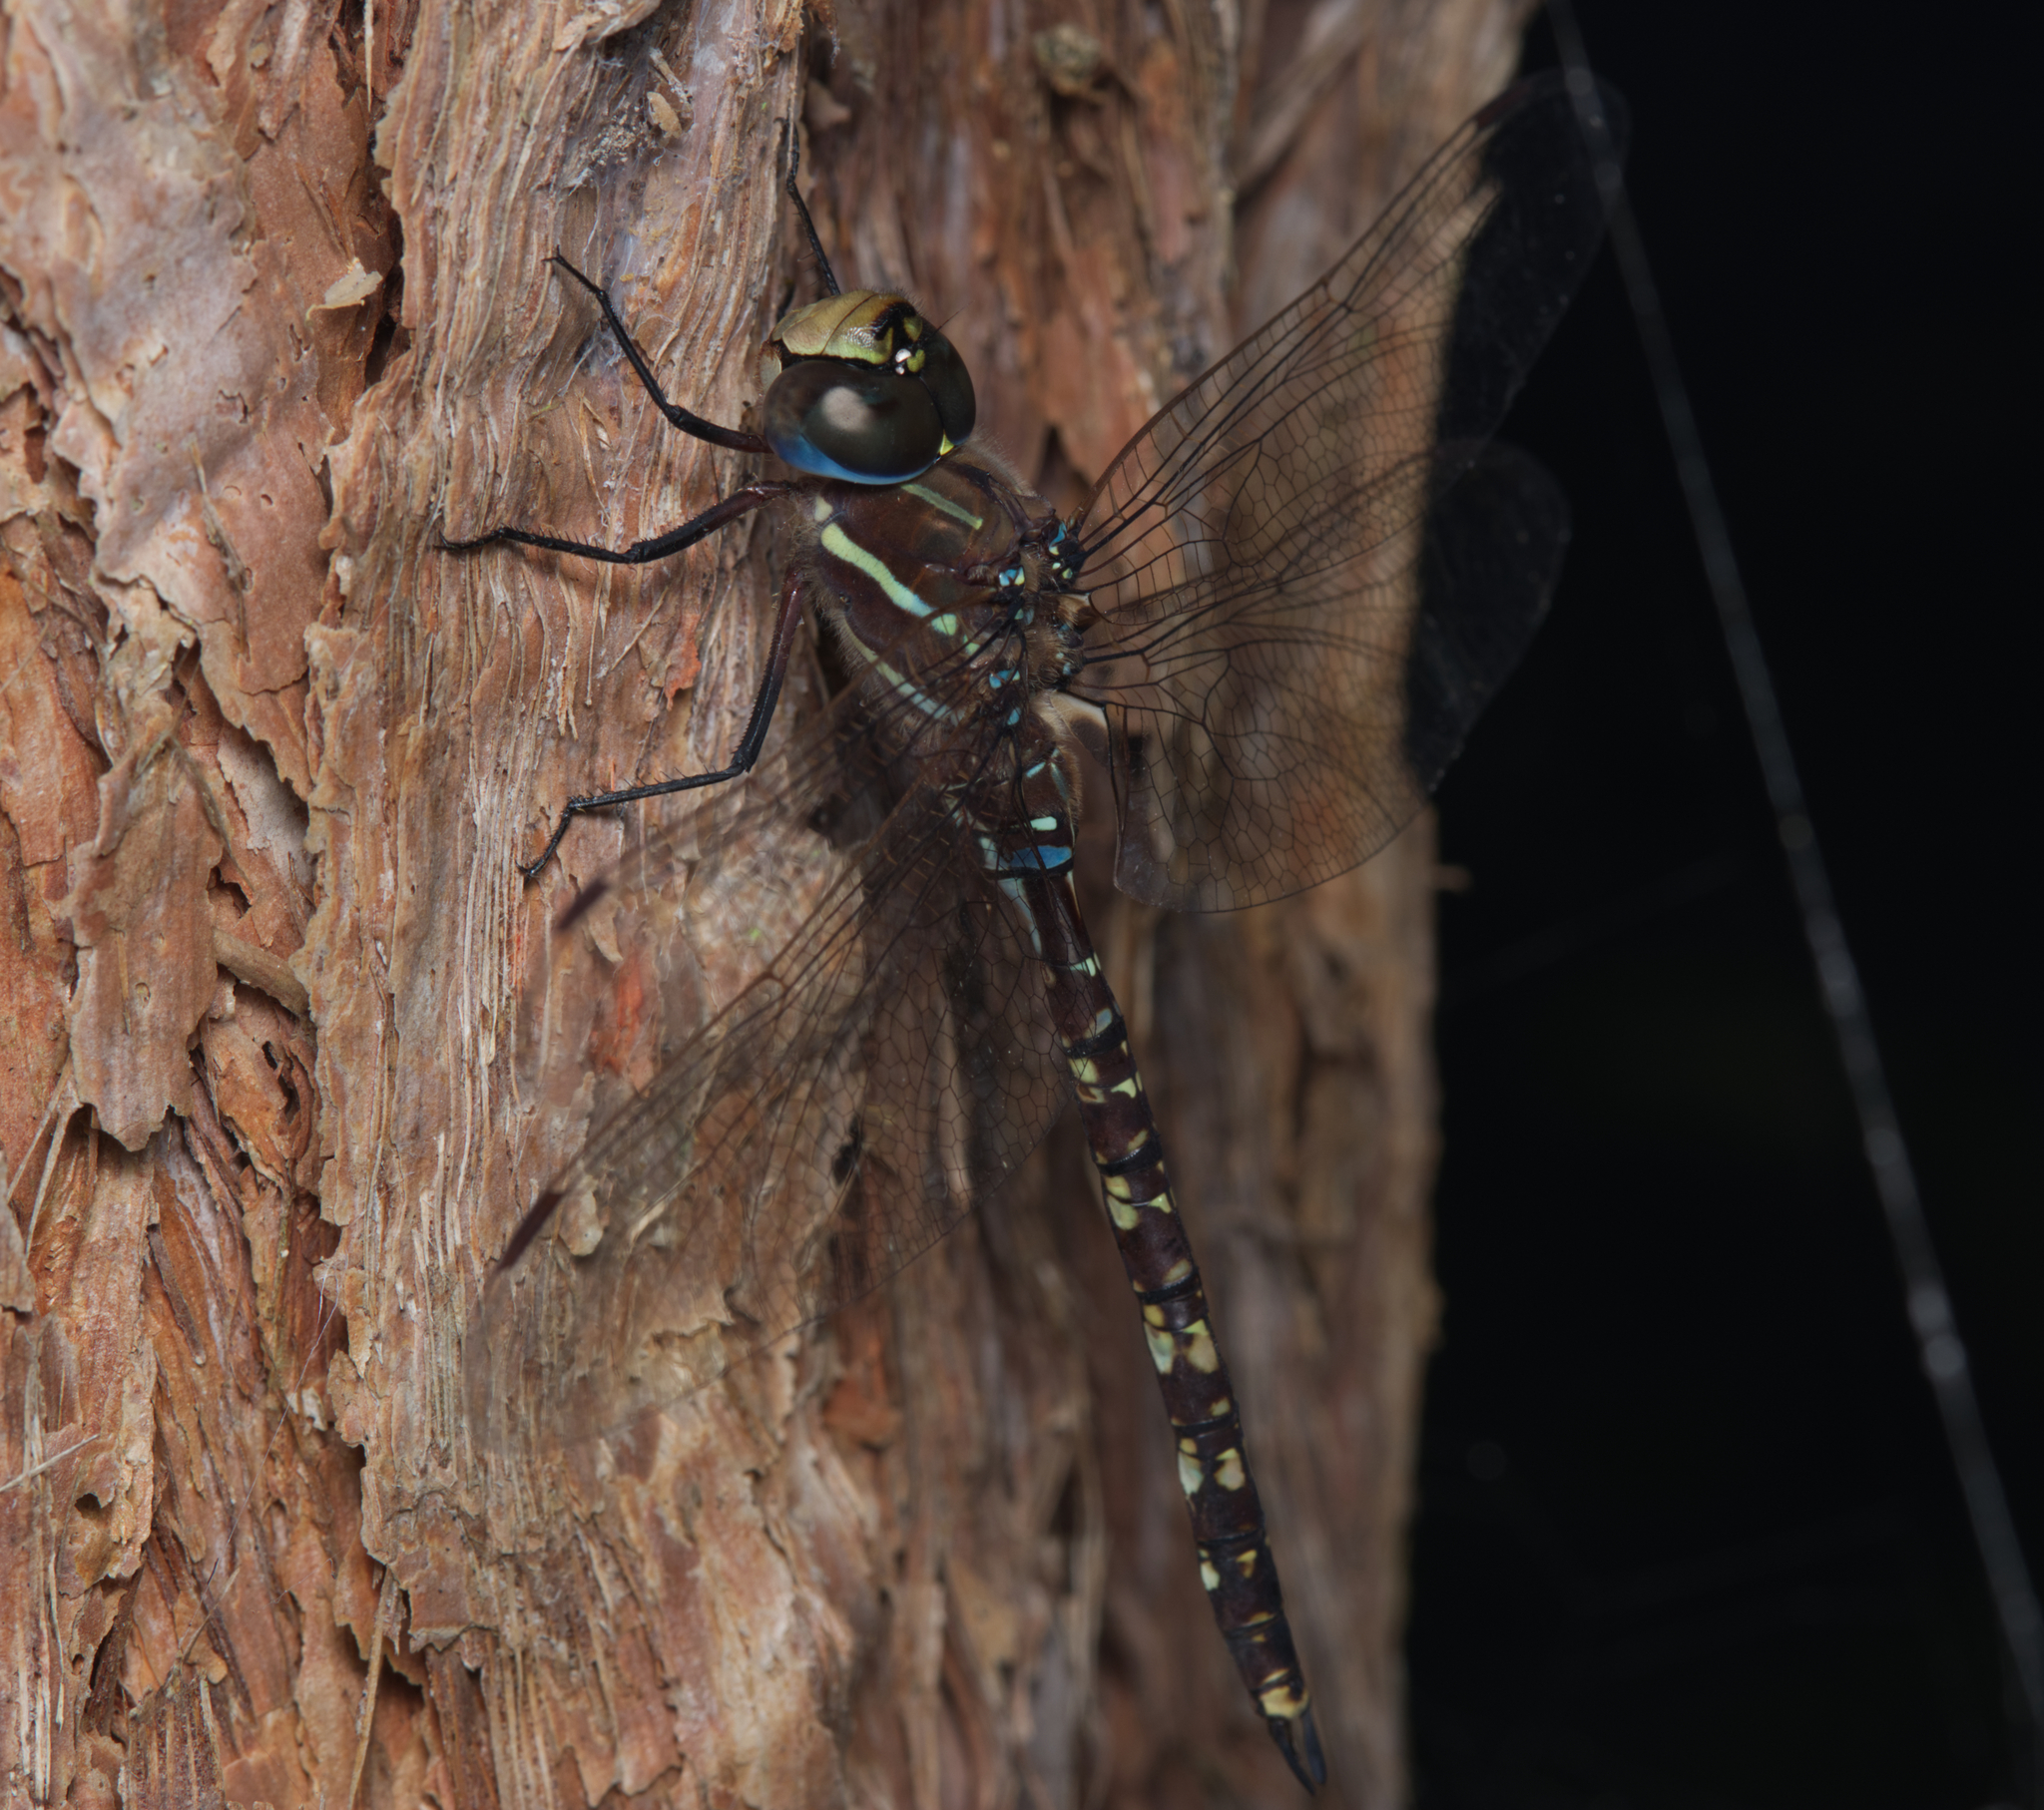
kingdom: Animalia
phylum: Arthropoda
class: Insecta
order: Odonata
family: Aeshnidae
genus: Aeshna
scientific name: Aeshna brevistyla
